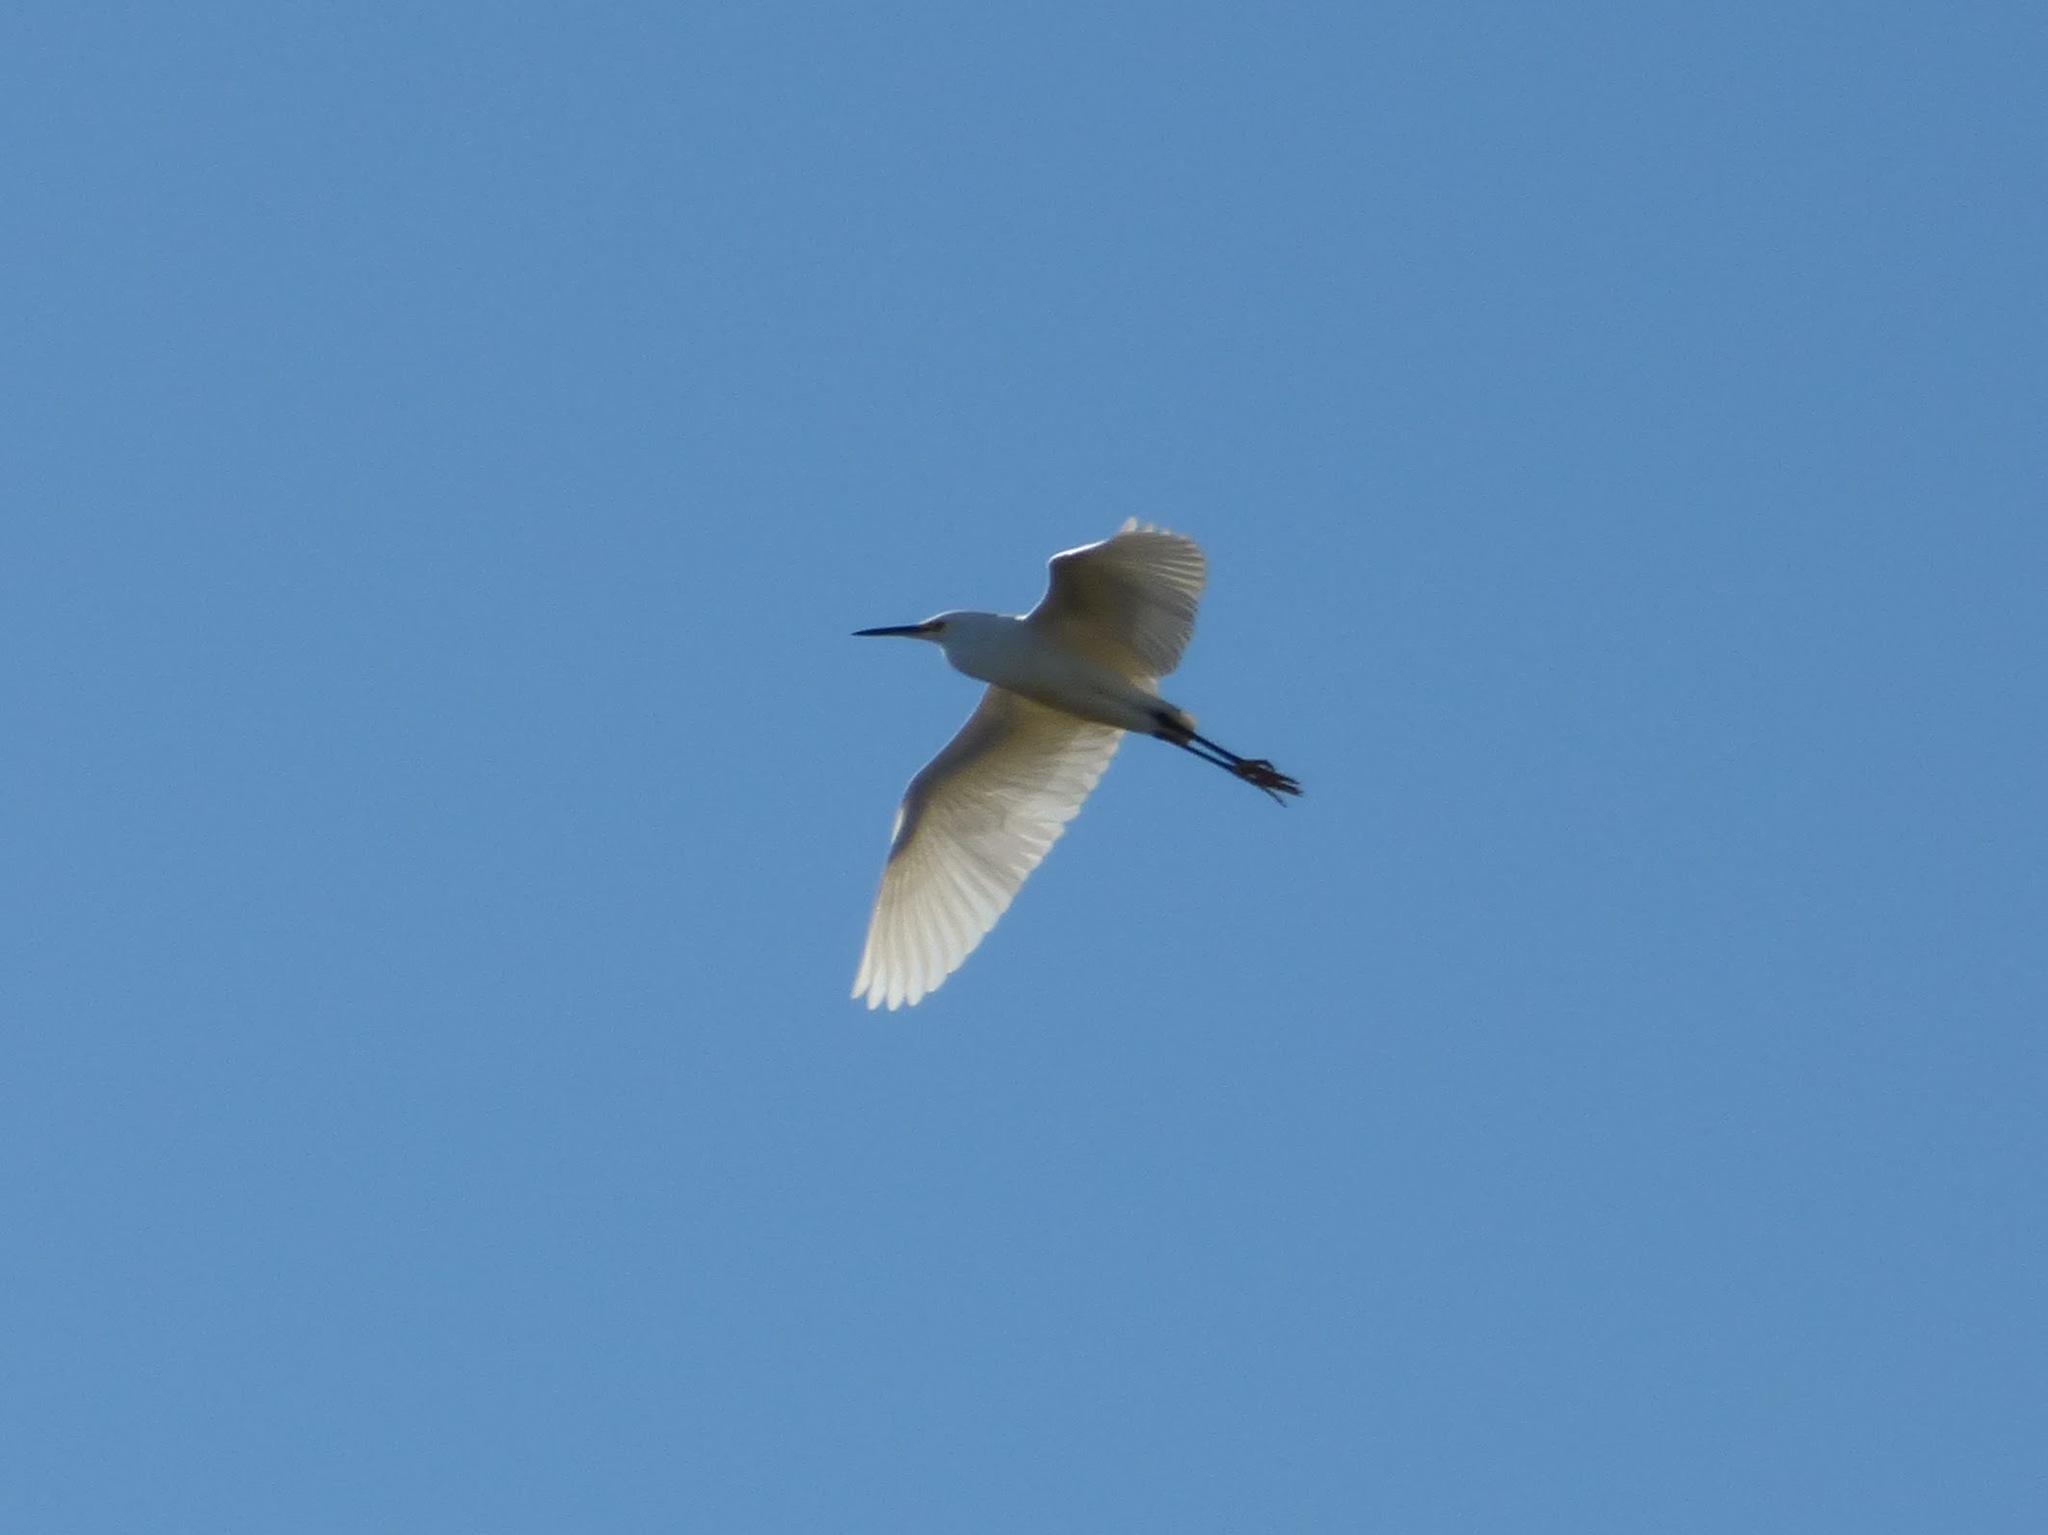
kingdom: Animalia
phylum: Chordata
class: Aves
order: Pelecaniformes
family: Ardeidae
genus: Egretta
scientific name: Egretta thula
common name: Snowy egret
